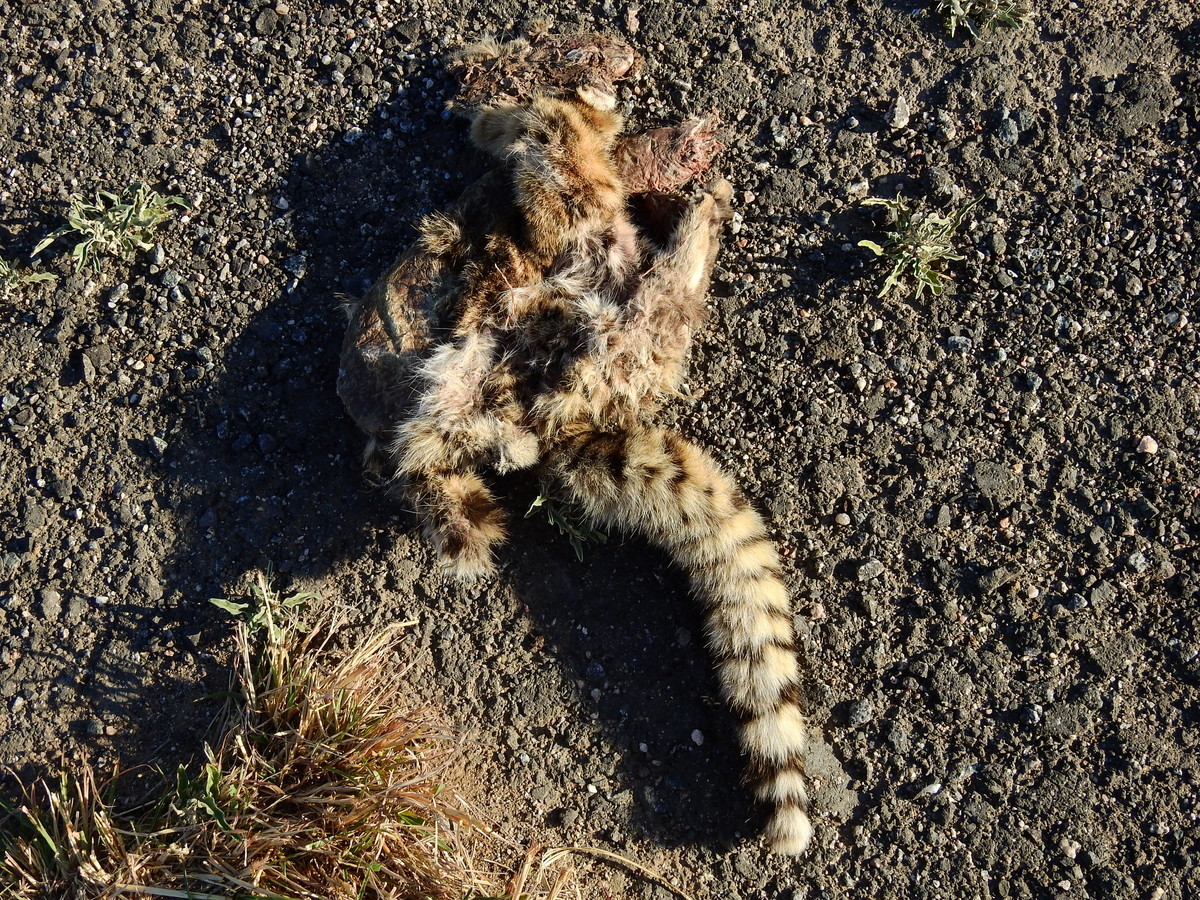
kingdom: Animalia
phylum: Chordata
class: Mammalia
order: Carnivora
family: Felidae
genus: Leopardus
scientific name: Leopardus geoffroyi
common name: Geoffroy's cat
